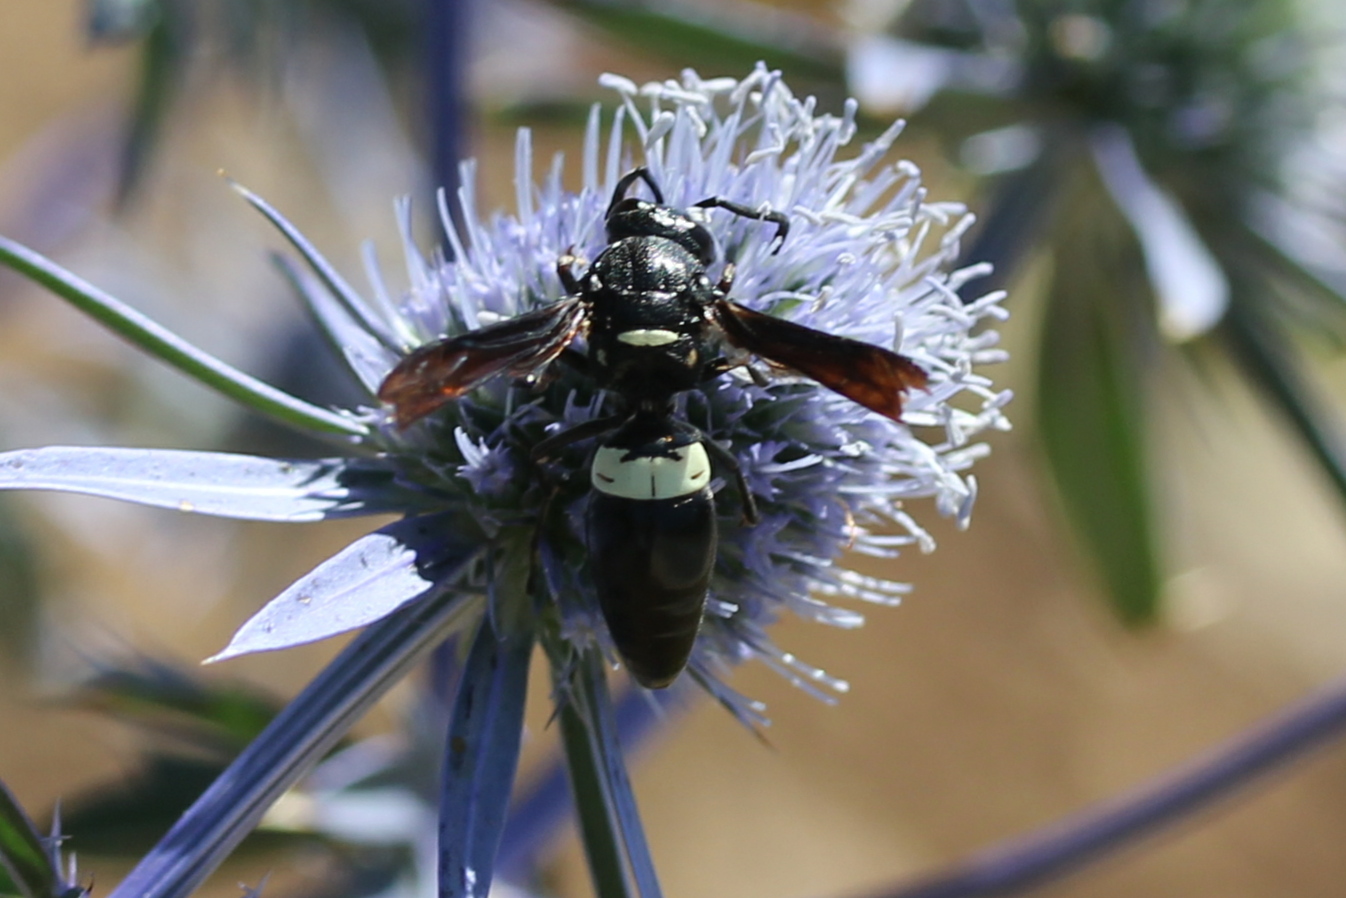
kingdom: Animalia
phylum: Arthropoda
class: Insecta
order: Hymenoptera
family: Eumenidae
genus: Monobia
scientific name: Monobia quadridens
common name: Four-toothed mason wasp
